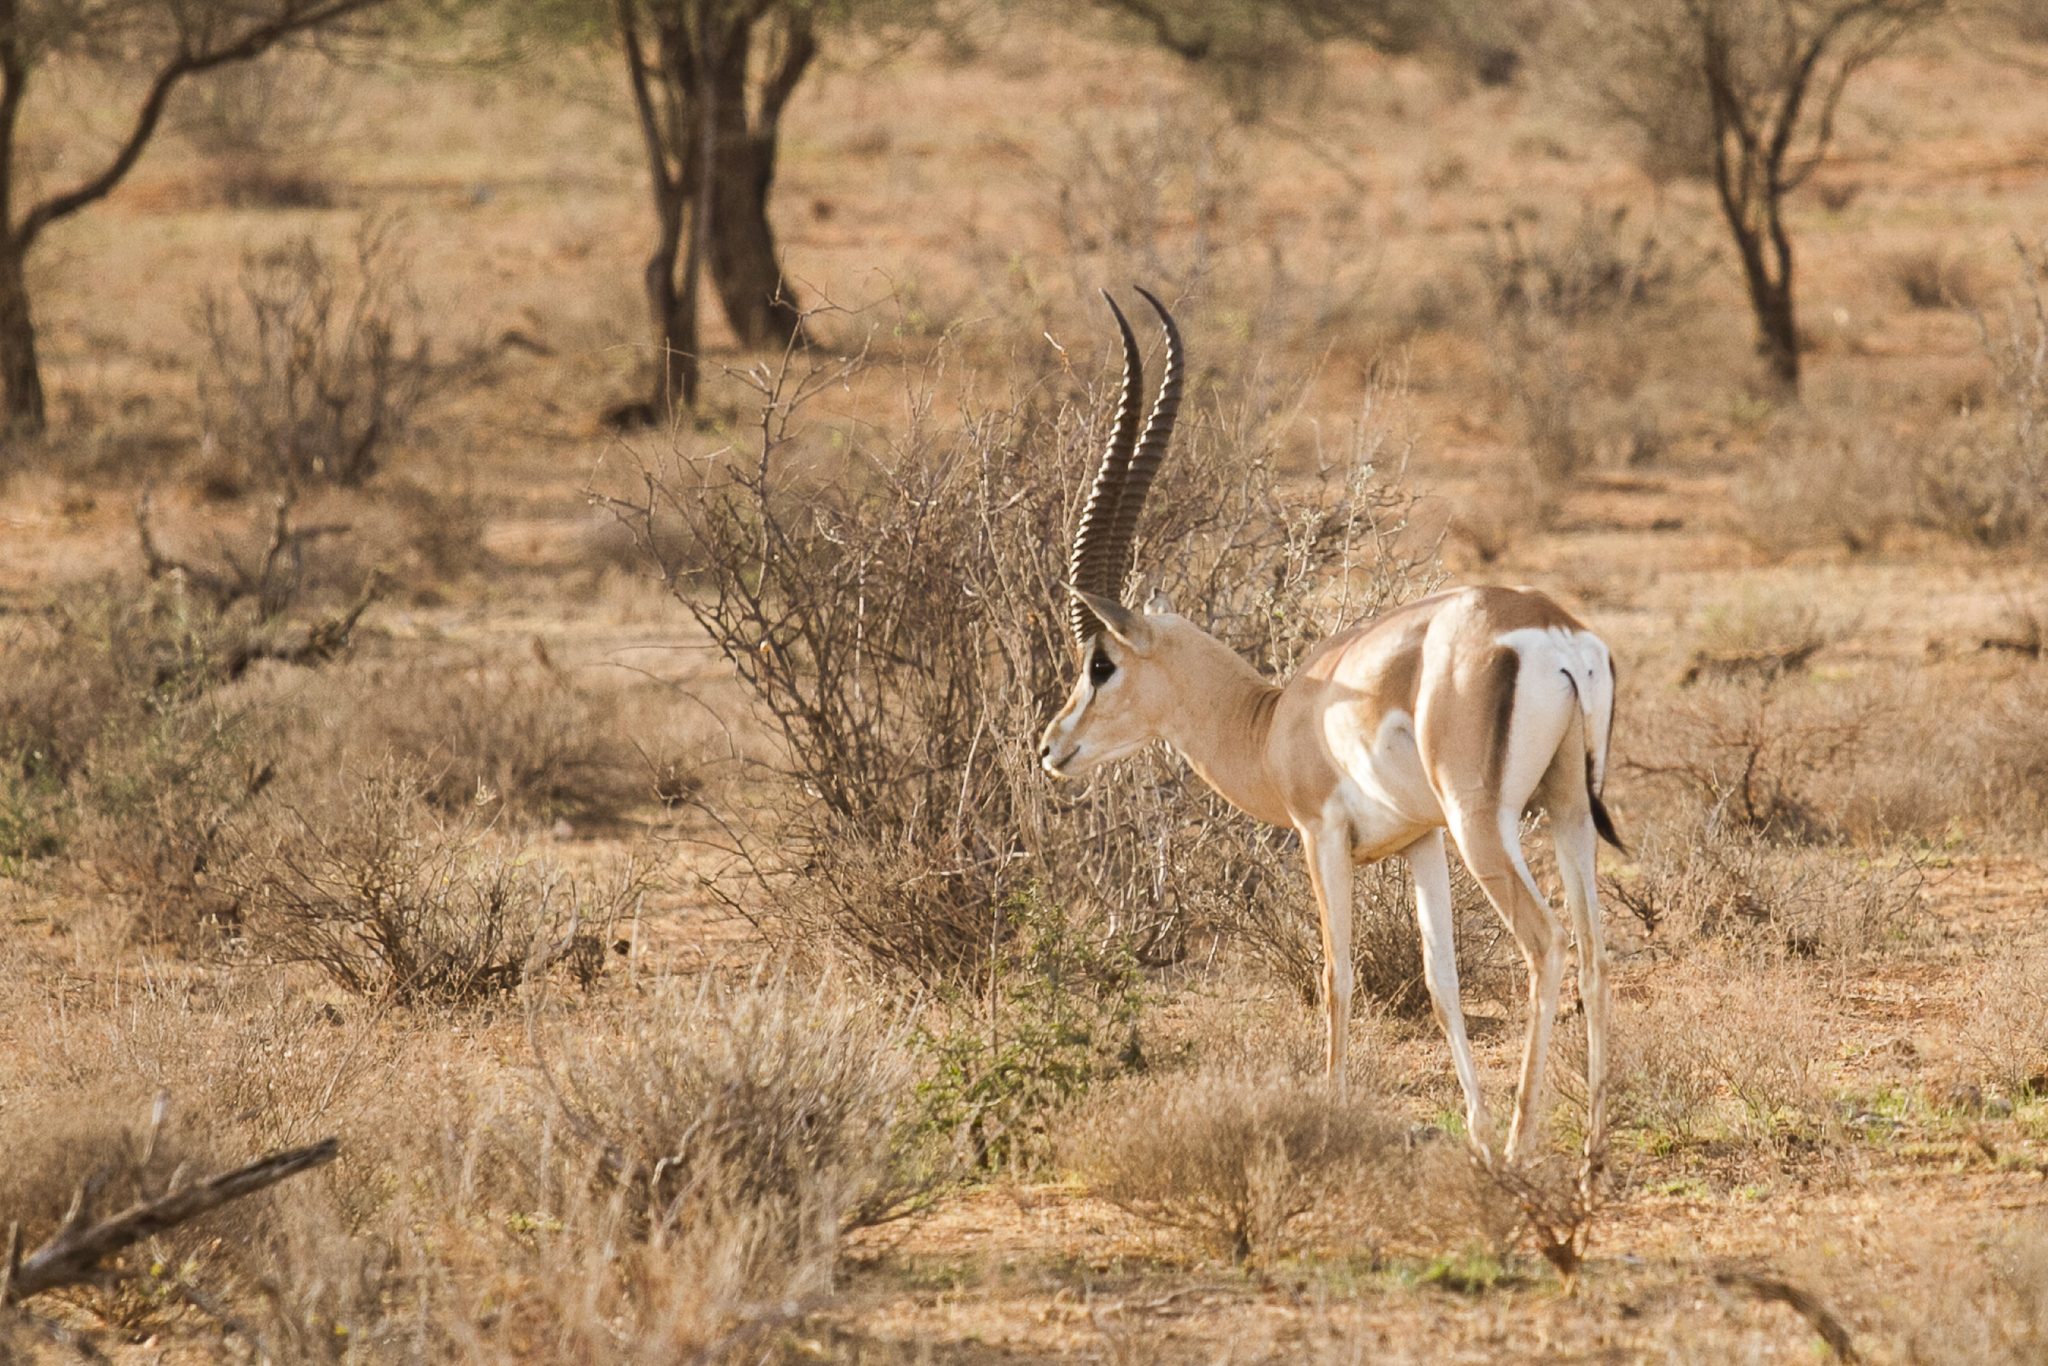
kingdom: Animalia
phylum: Chordata
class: Mammalia
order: Artiodactyla
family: Bovidae
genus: Nanger
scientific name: Nanger granti
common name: Grant's gazelle
